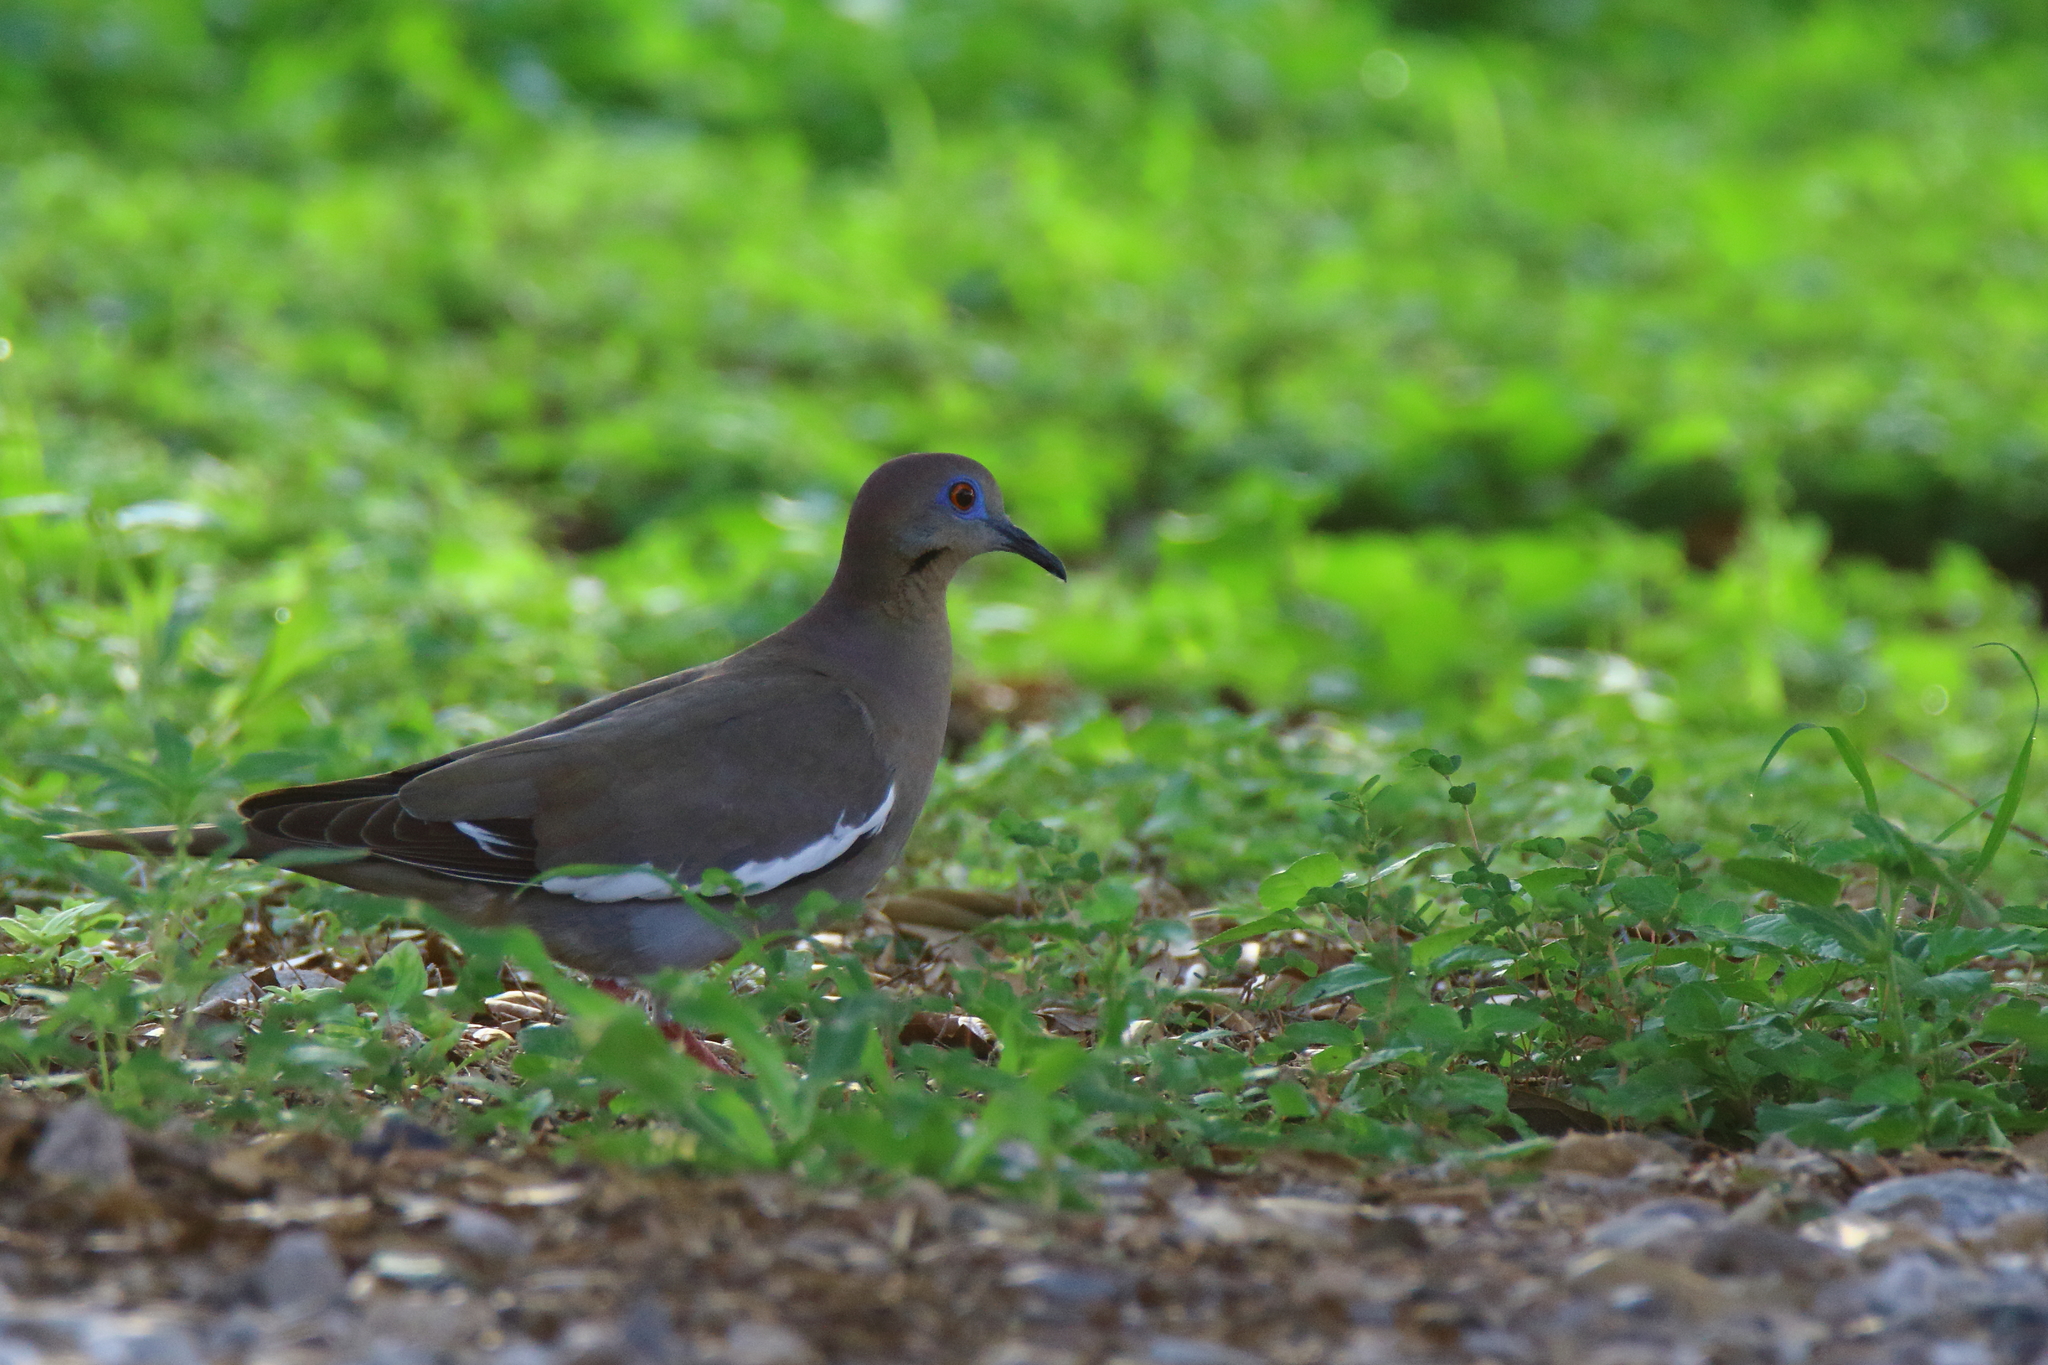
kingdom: Animalia
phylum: Chordata
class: Aves
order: Columbiformes
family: Columbidae
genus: Zenaida
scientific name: Zenaida asiatica
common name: White-winged dove
